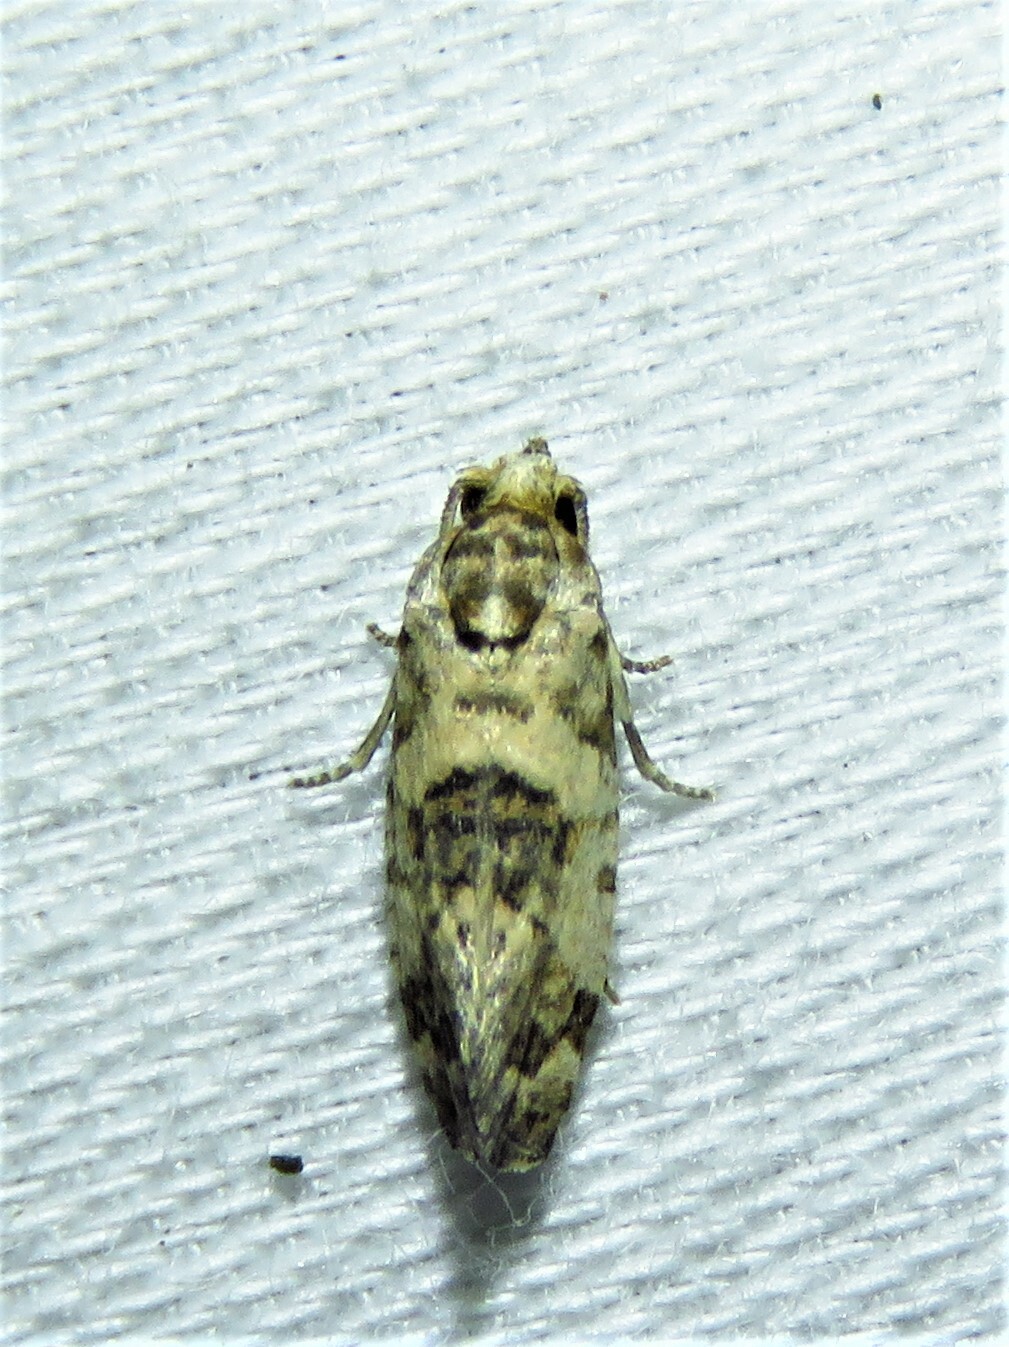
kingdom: Animalia
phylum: Arthropoda
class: Insecta
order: Lepidoptera
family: Tortricidae
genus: Rudenia
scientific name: Rudenia leguminana
